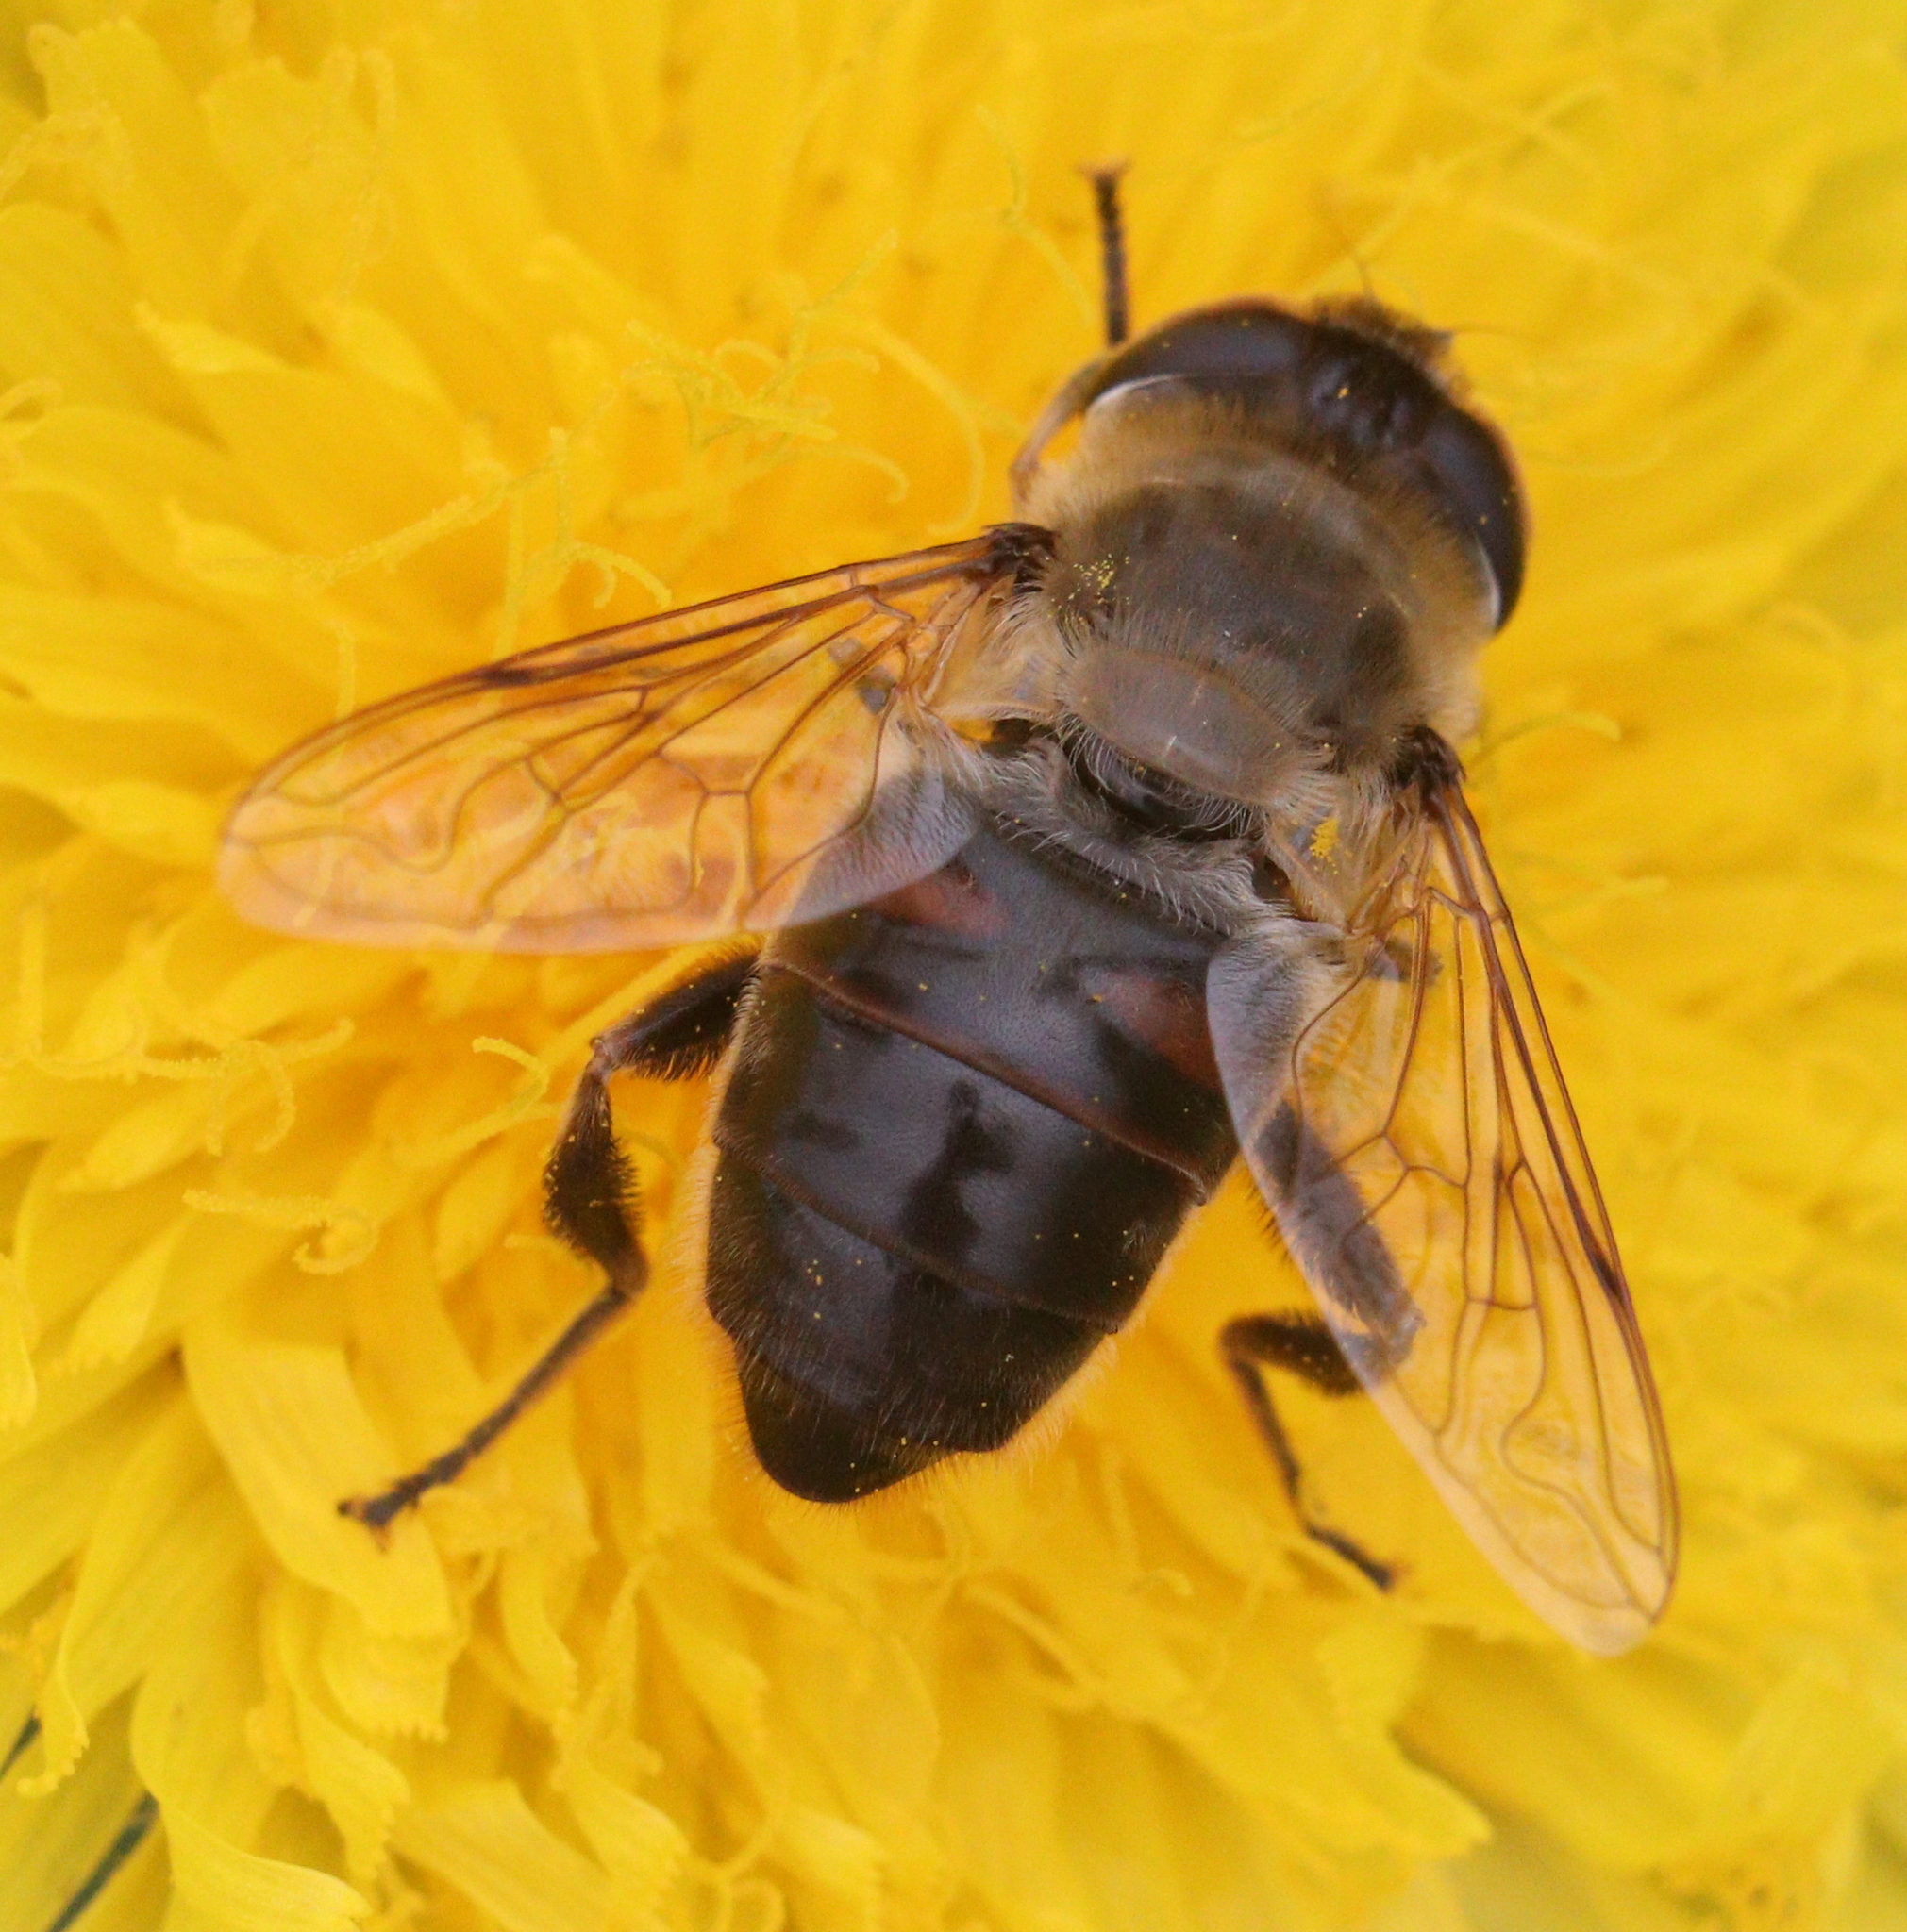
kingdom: Animalia
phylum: Arthropoda
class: Insecta
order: Diptera
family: Syrphidae
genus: Eristalis
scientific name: Eristalis tenax
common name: Drone fly
